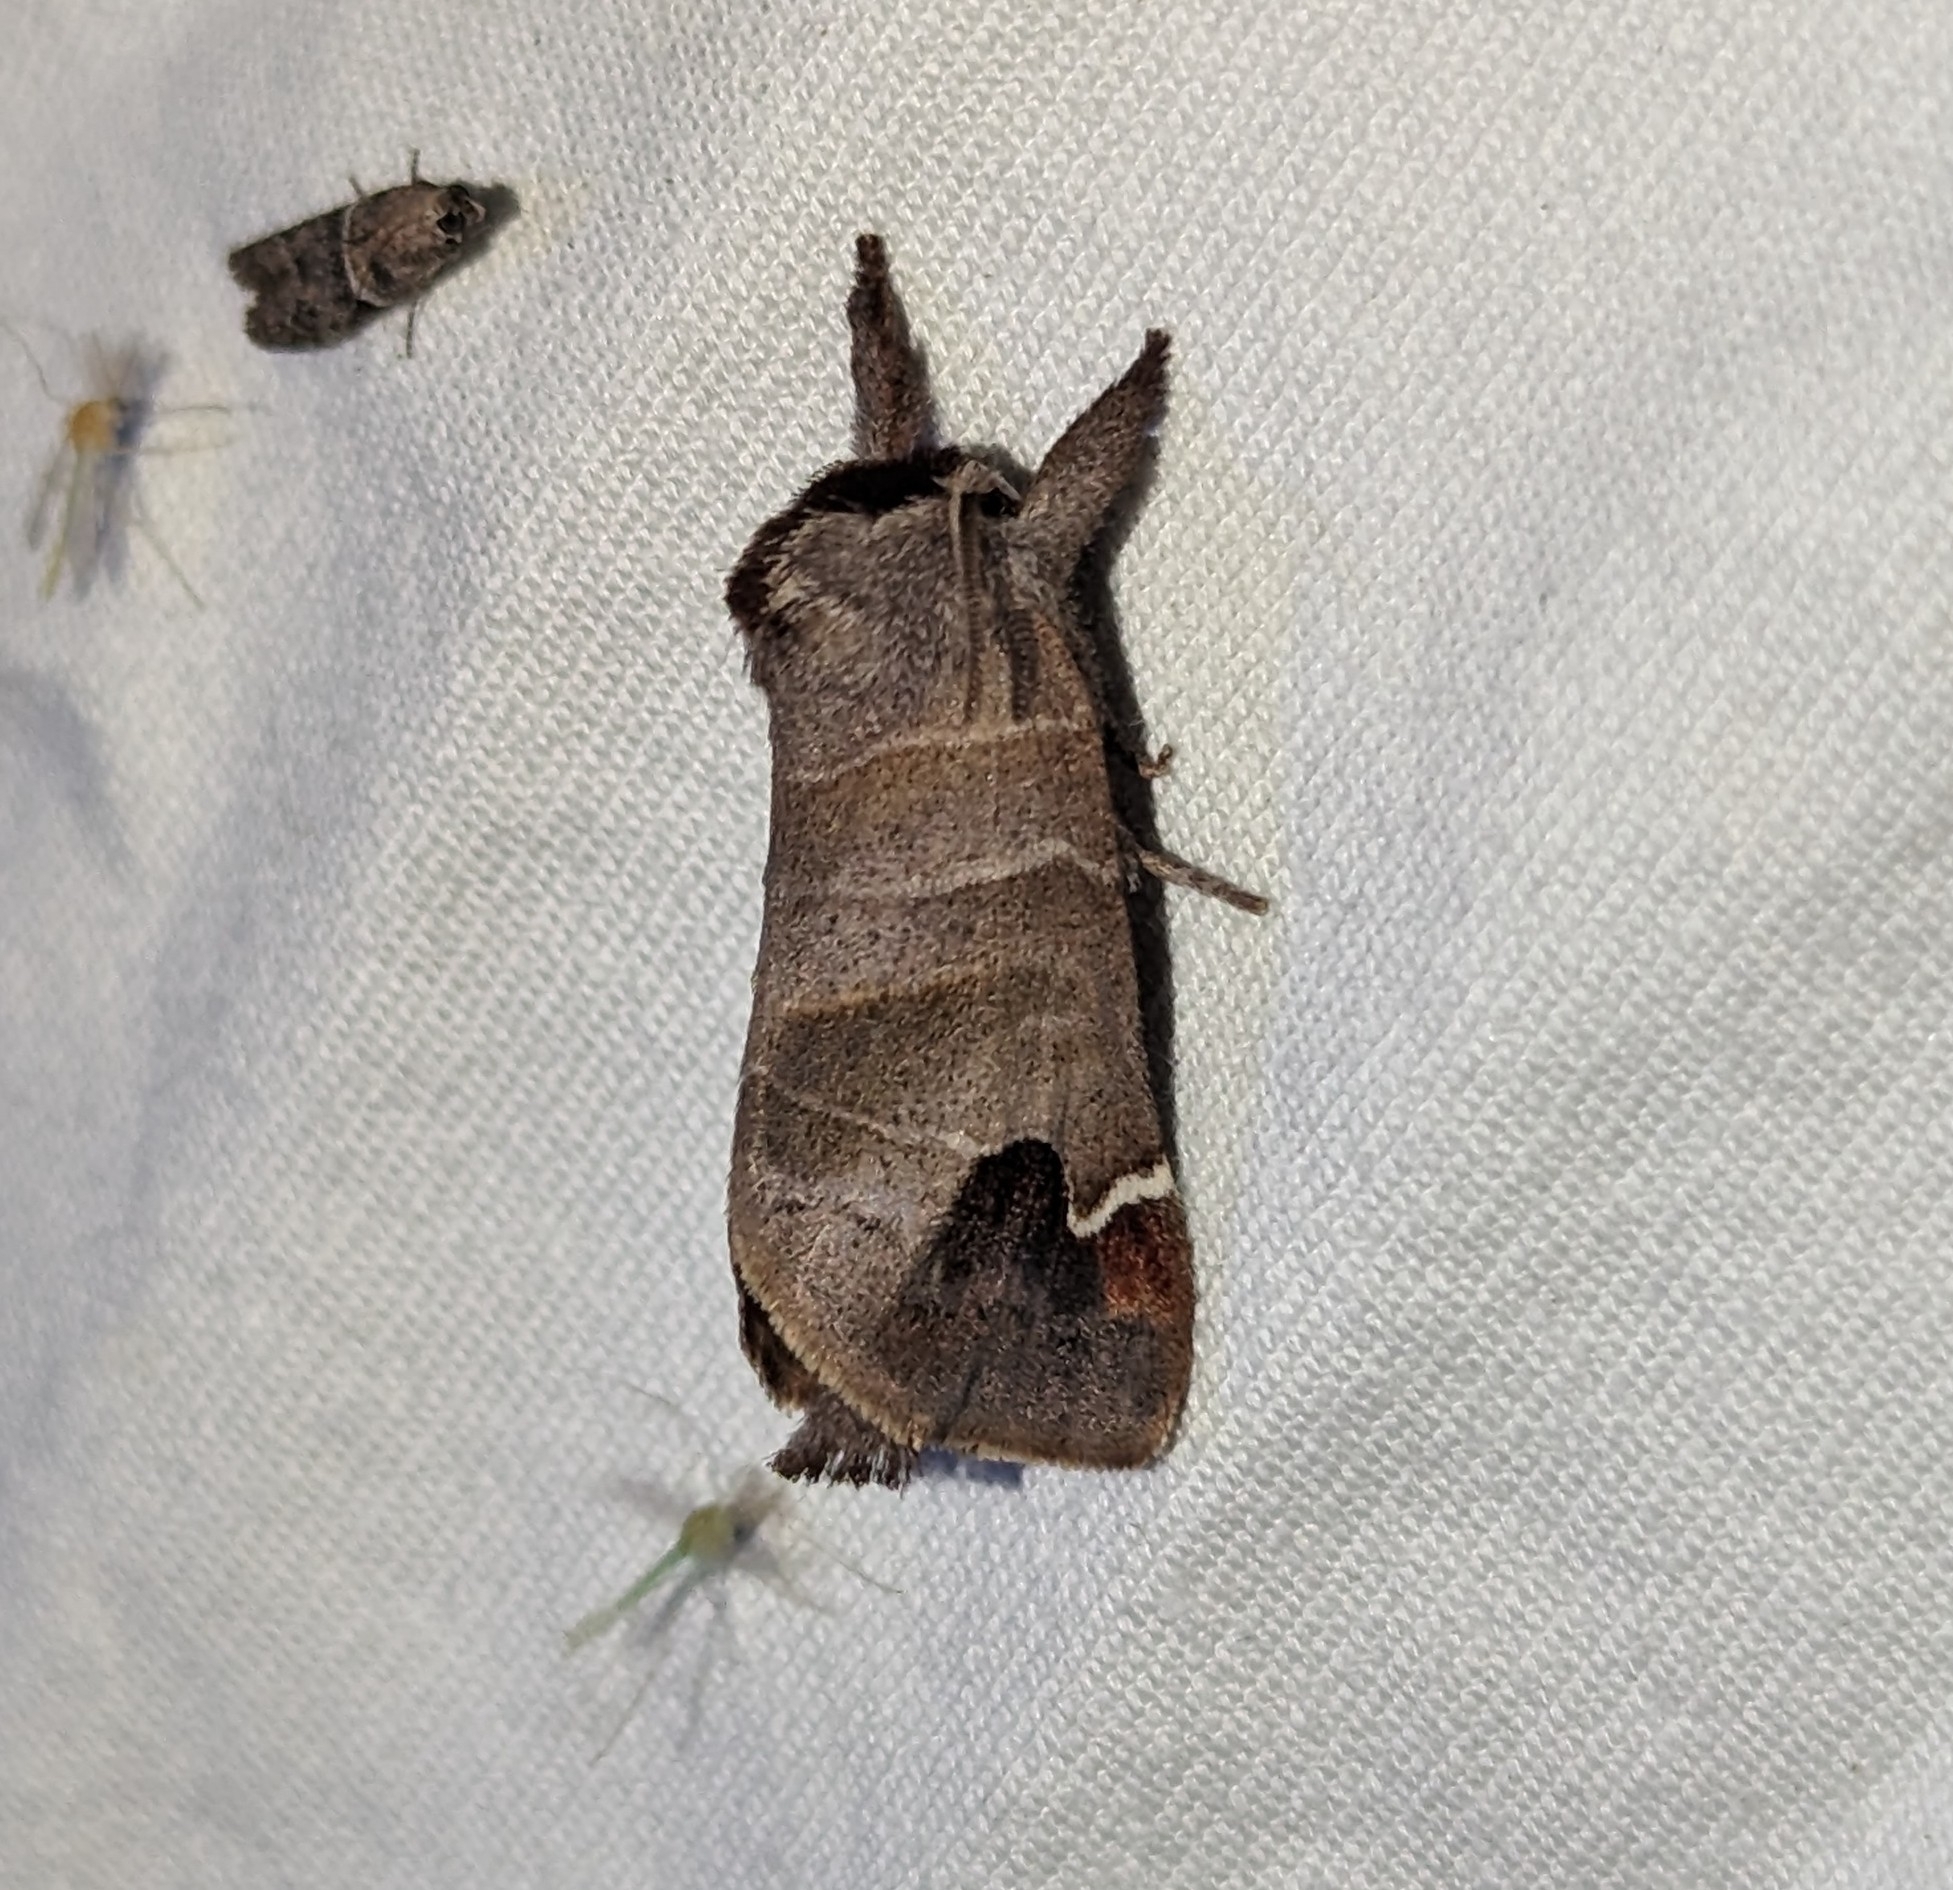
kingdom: Animalia
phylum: Arthropoda
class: Insecta
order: Lepidoptera
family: Notodontidae
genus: Clostera
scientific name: Clostera albosigma
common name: Sigmoid prominent
